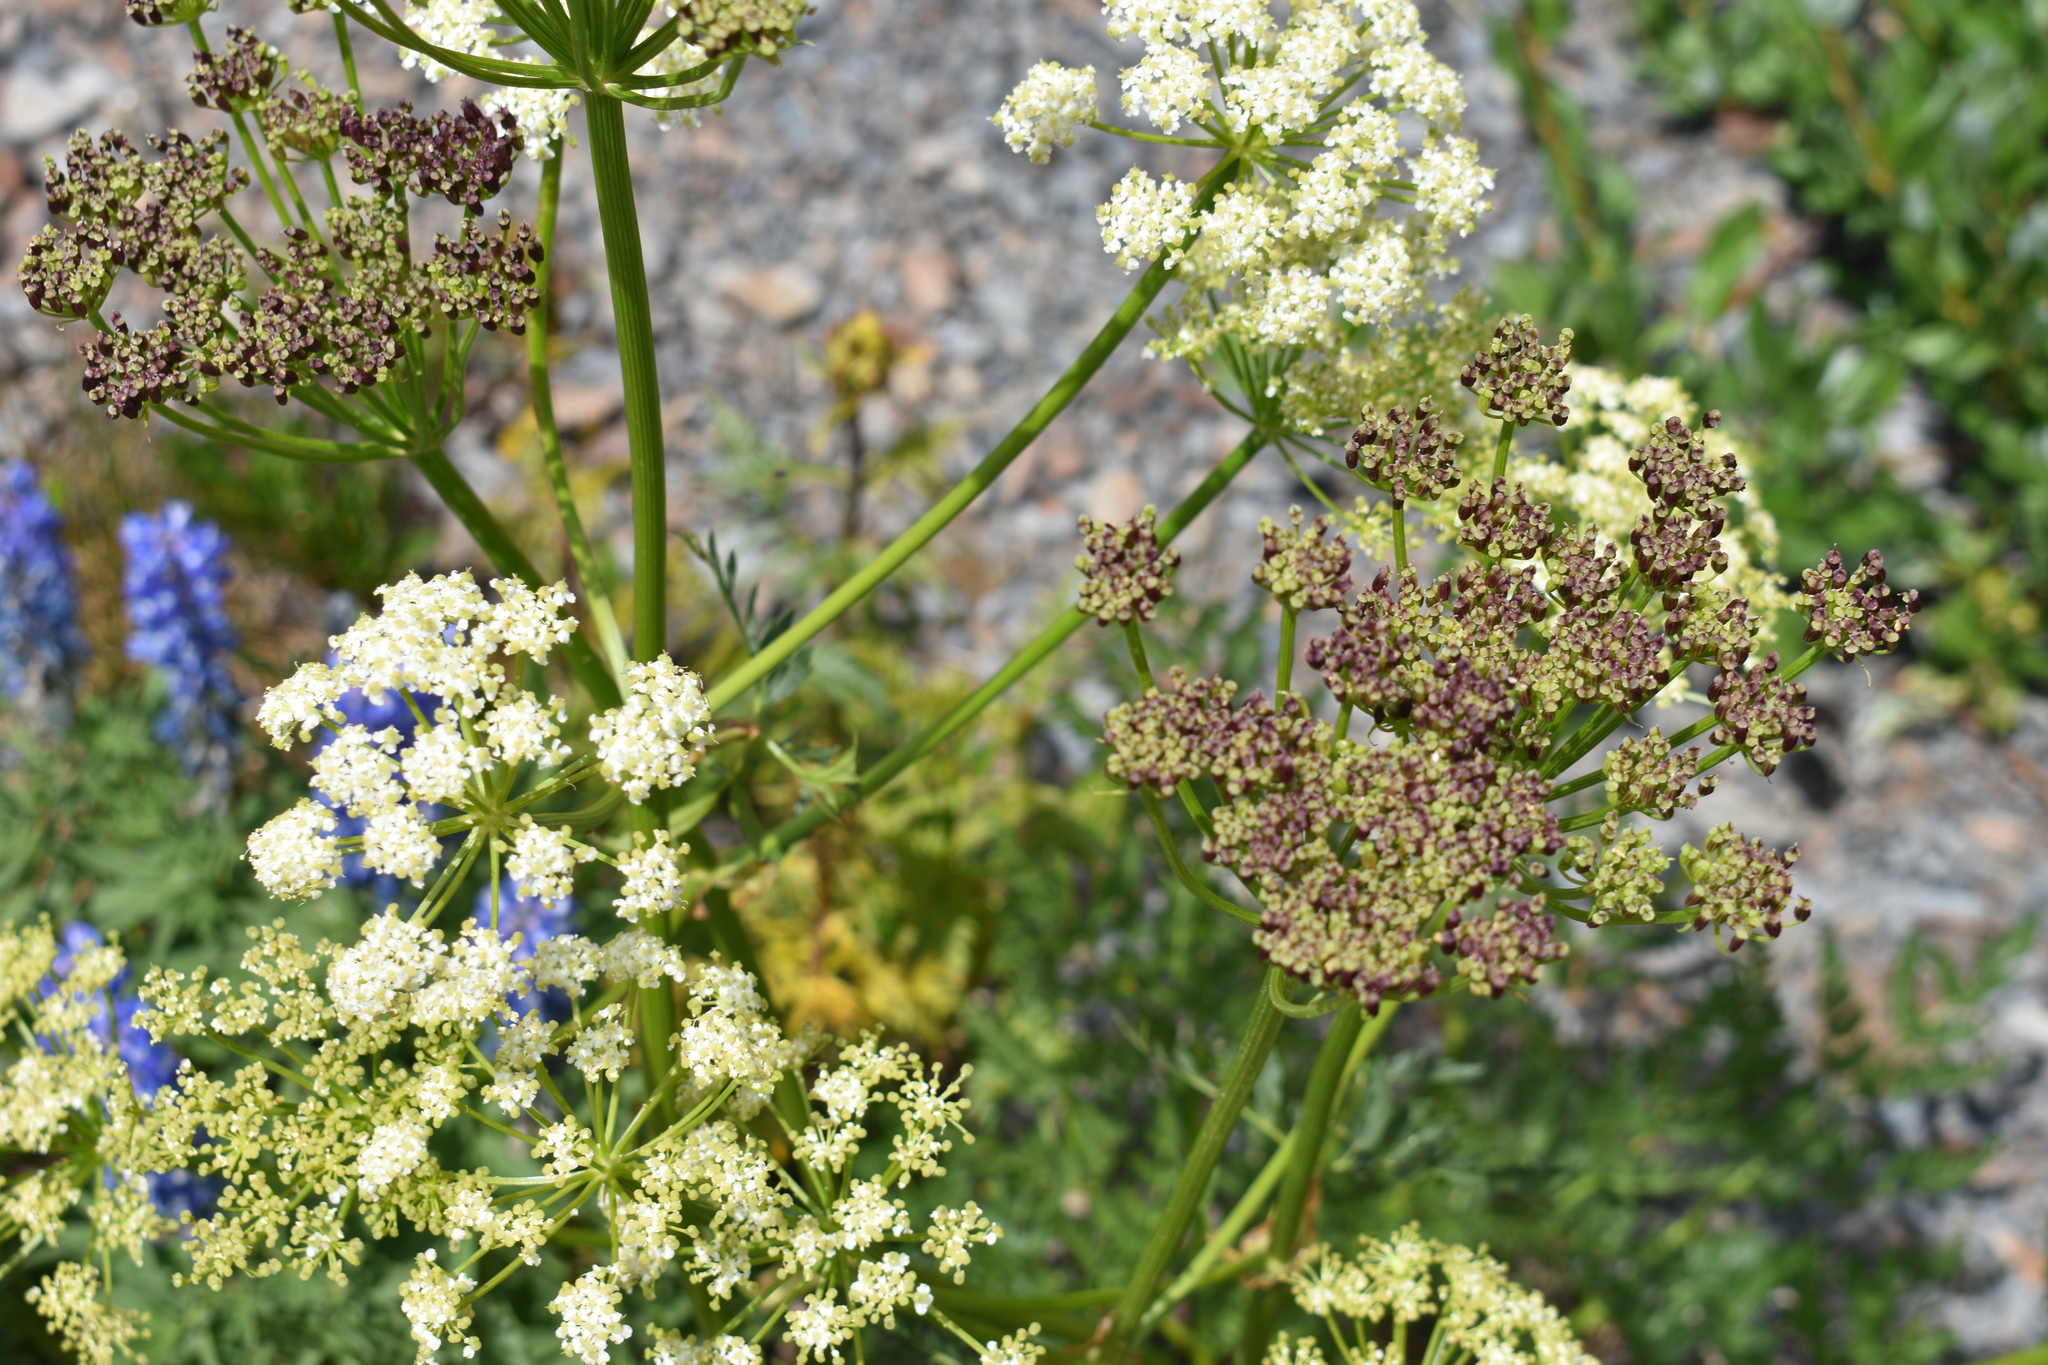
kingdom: Plantae
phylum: Tracheophyta
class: Magnoliopsida
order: Apiales
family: Apiaceae
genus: Ligusticum
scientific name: Ligusticum porteri
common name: Mountain lovage
